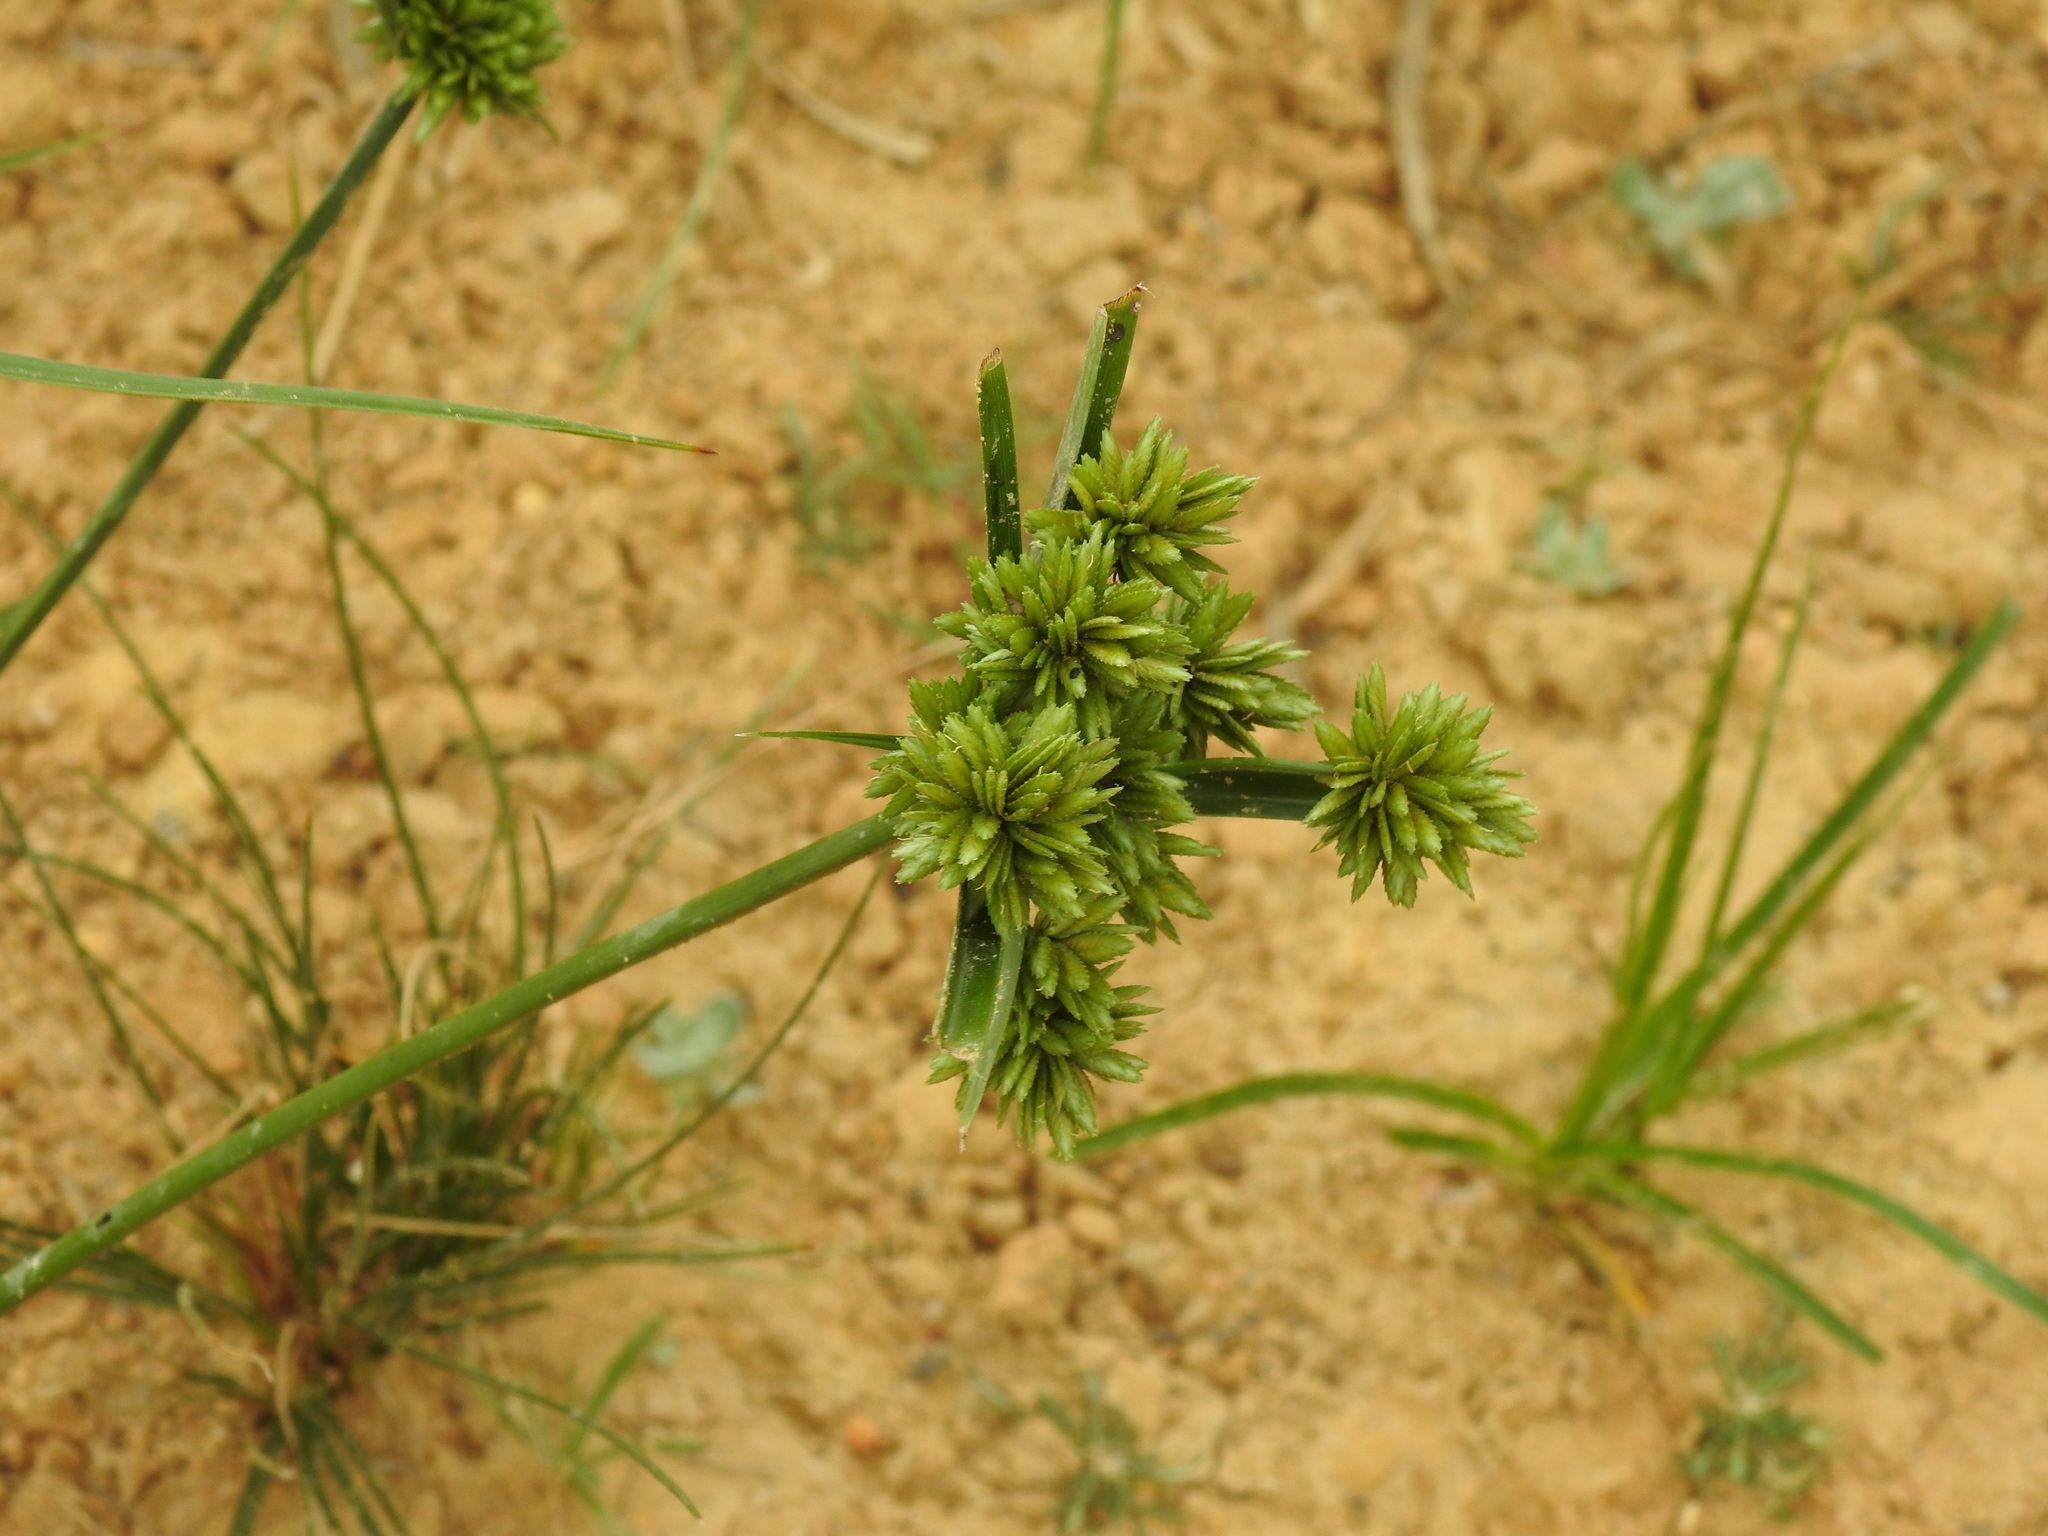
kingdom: Plantae
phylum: Tracheophyta
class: Liliopsida
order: Poales
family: Cyperaceae
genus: Cyperus
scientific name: Cyperus eragrostis
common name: Tall flatsedge
